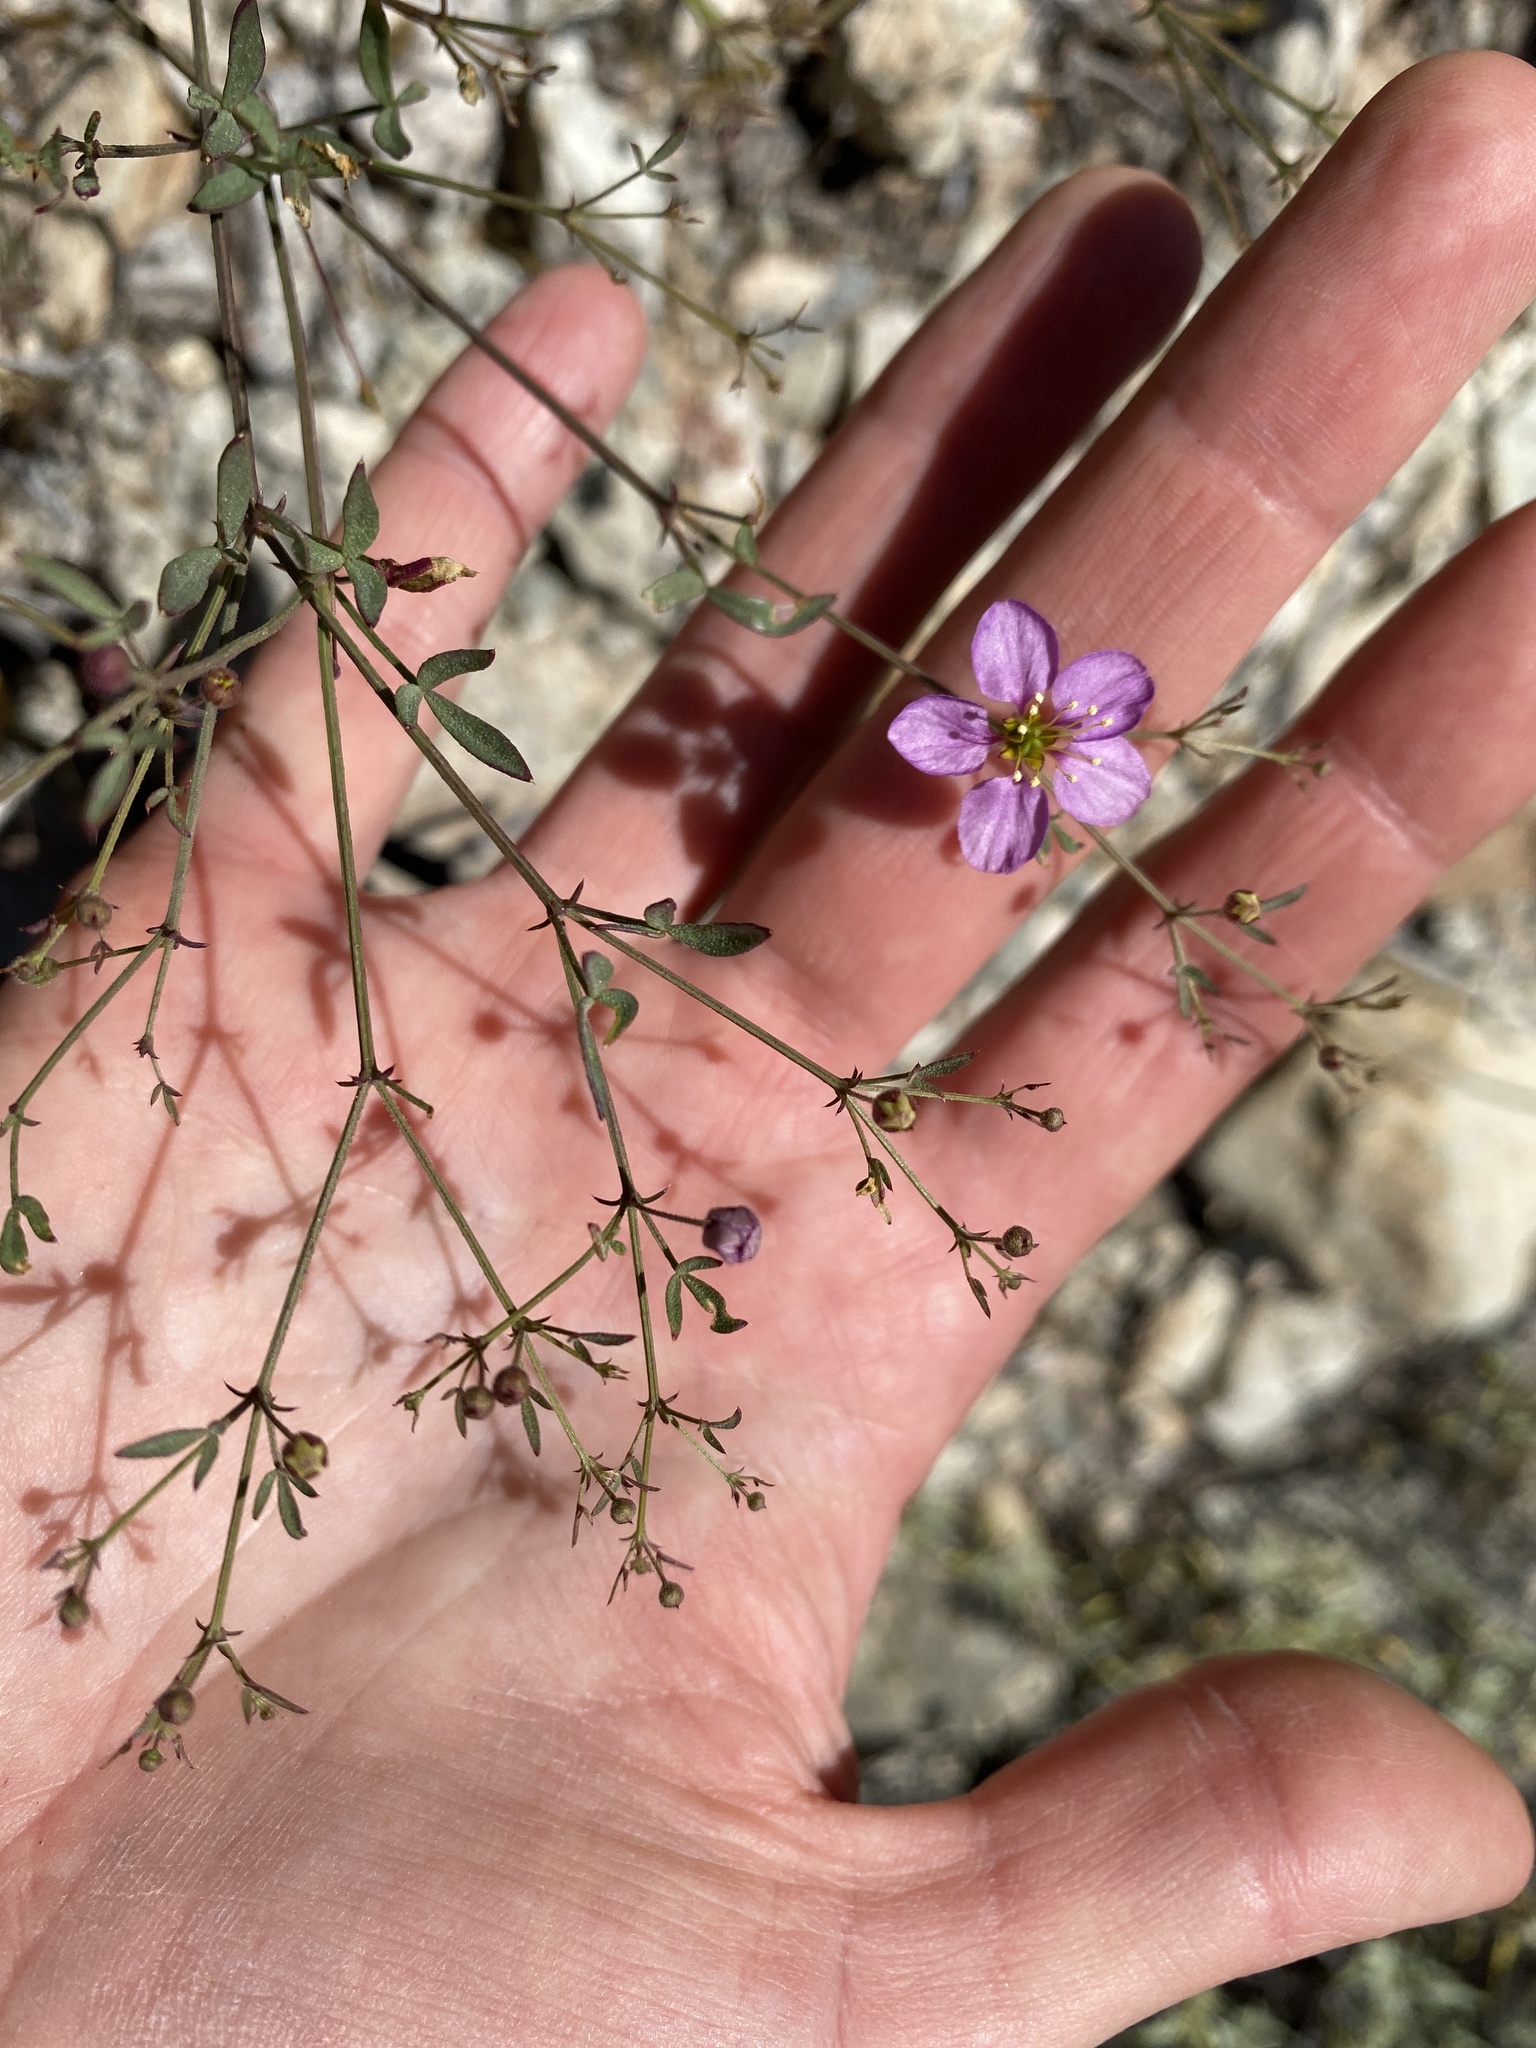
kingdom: Plantae
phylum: Tracheophyta
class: Magnoliopsida
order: Zygophyllales
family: Zygophyllaceae
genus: Fagonia
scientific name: Fagonia laevis
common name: California fagonbush
